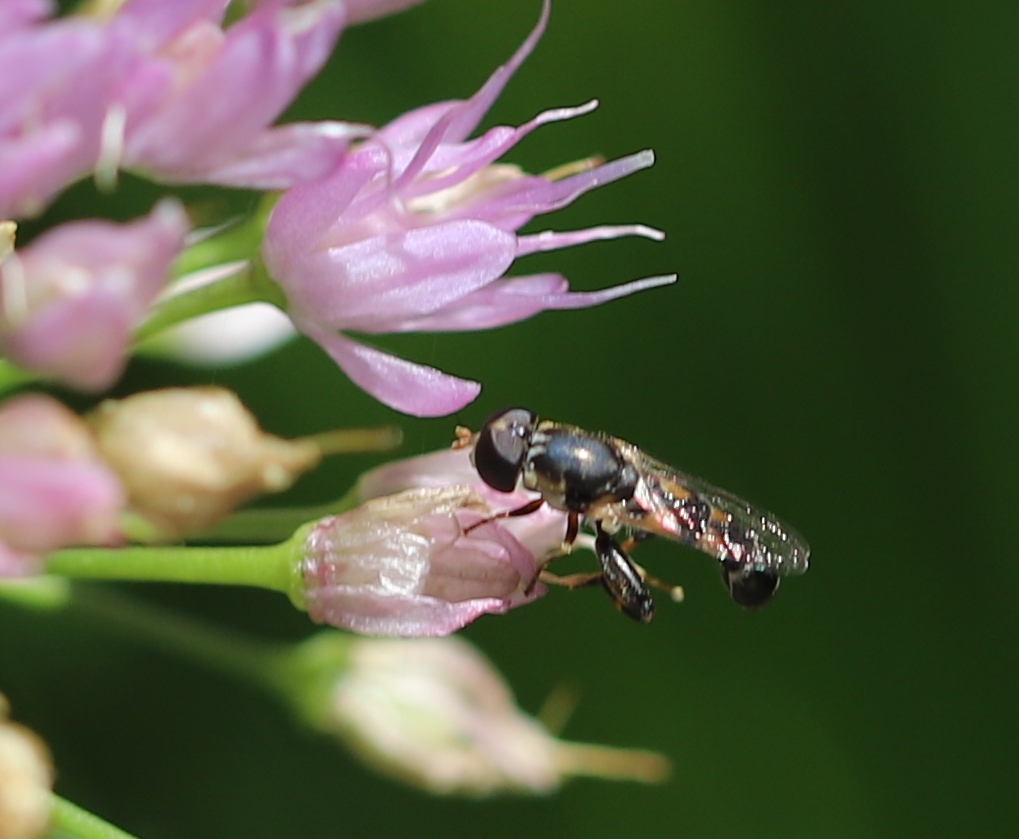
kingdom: Animalia
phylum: Arthropoda
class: Insecta
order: Diptera
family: Syrphidae
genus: Syritta
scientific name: Syritta pipiens
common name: Hover fly
